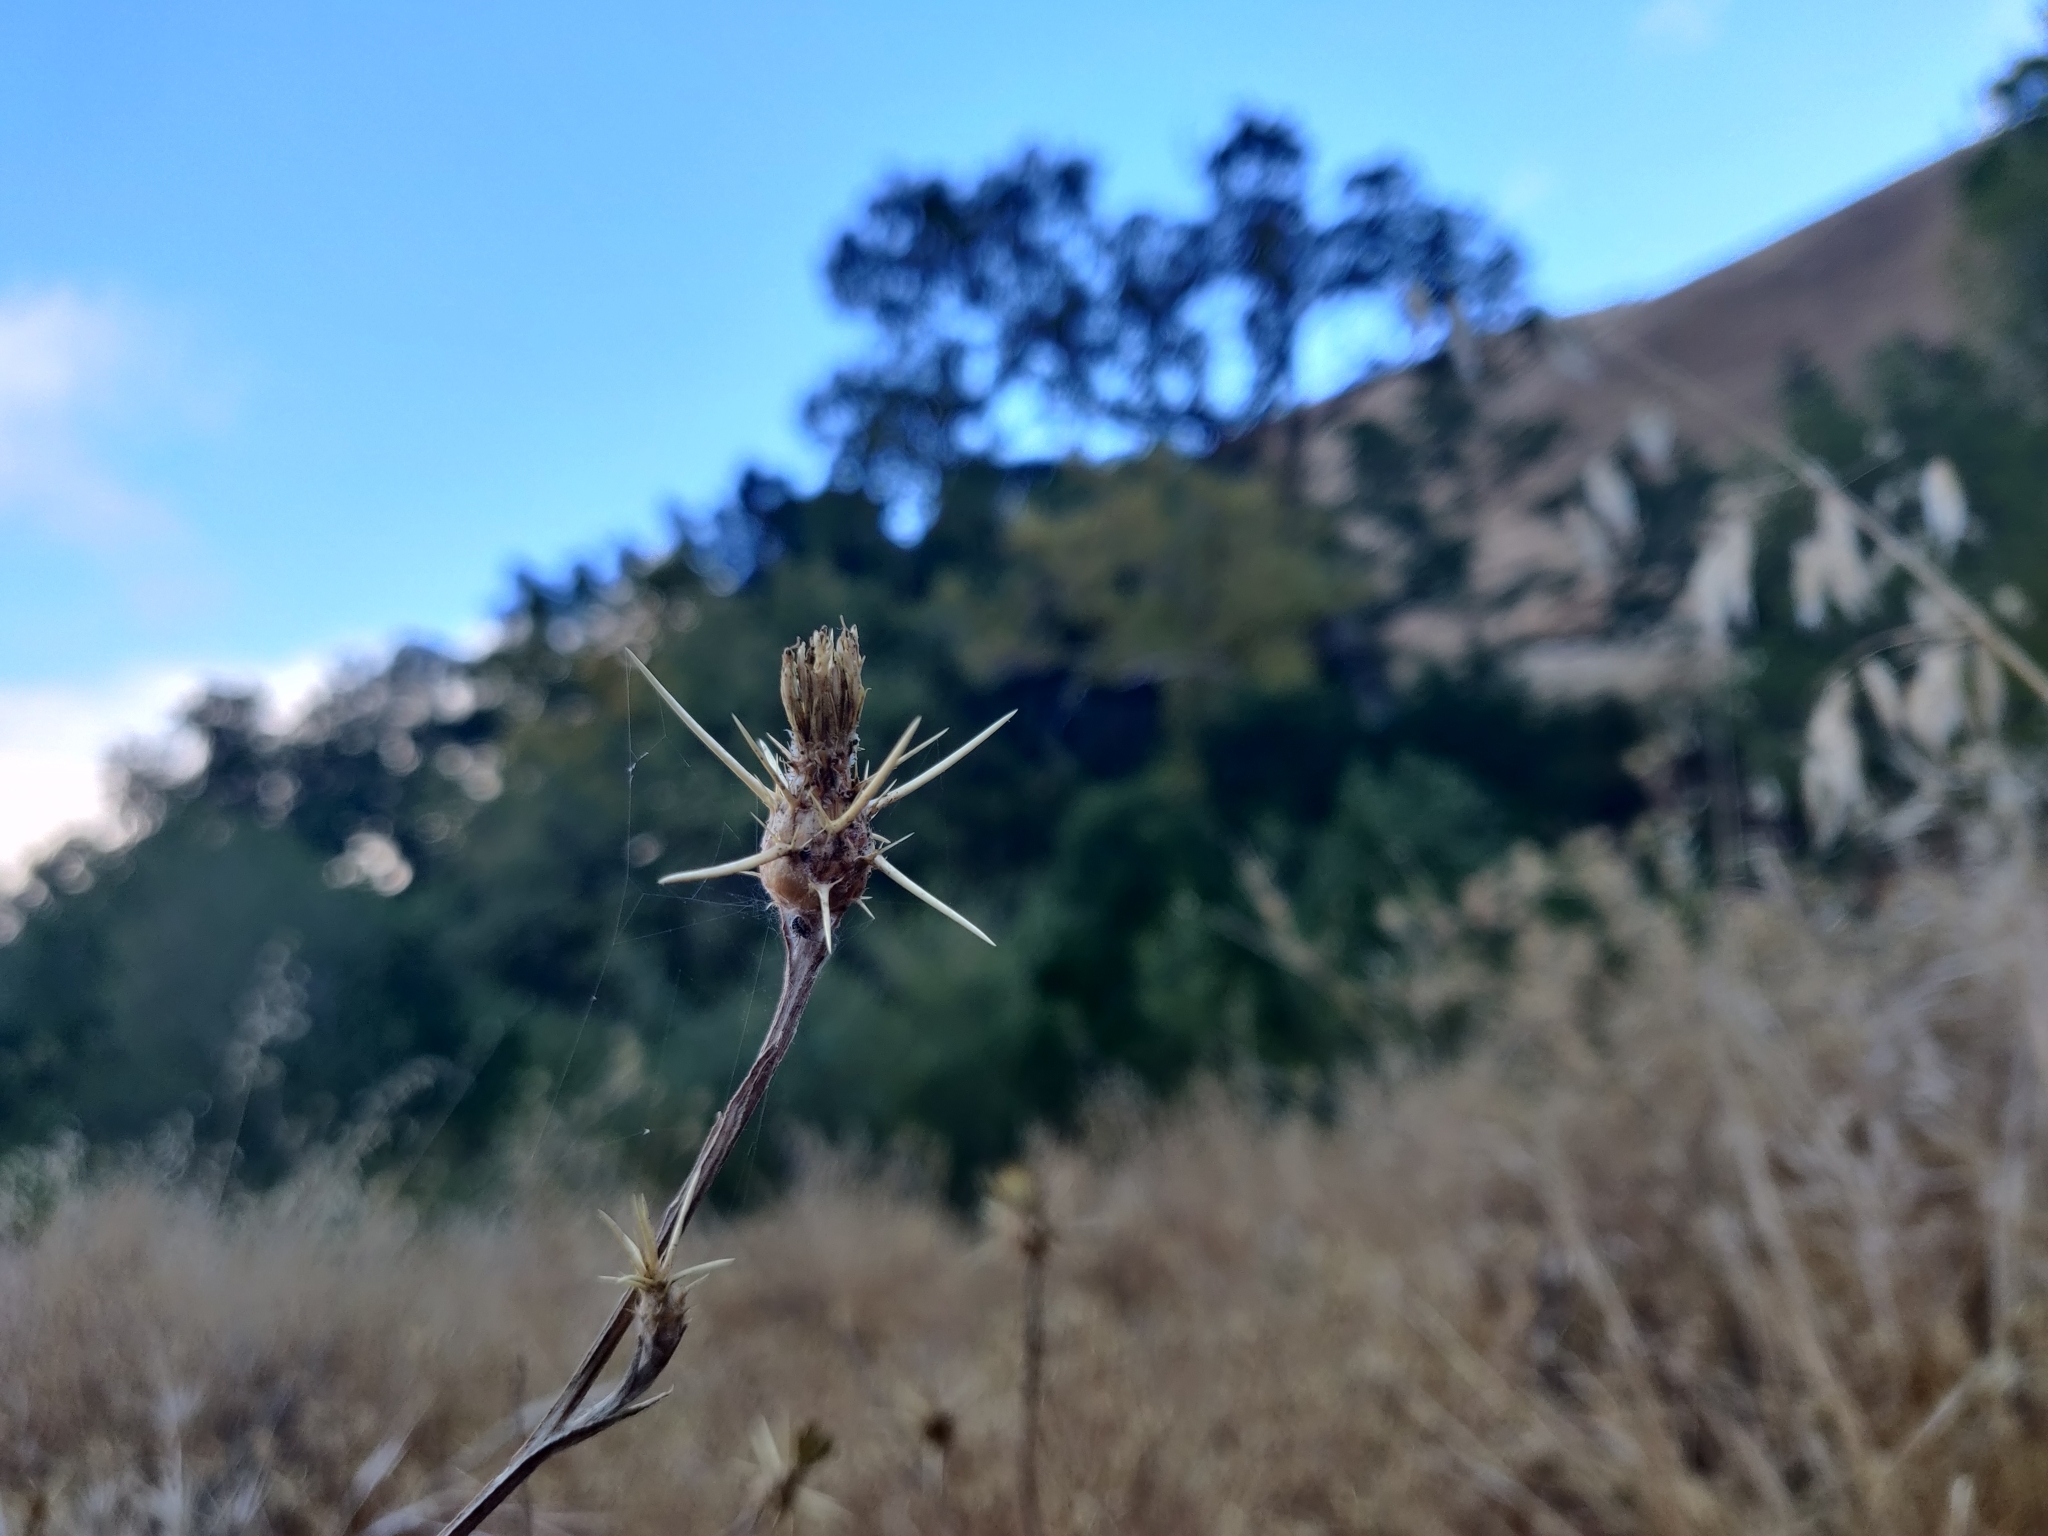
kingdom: Plantae
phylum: Tracheophyta
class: Magnoliopsida
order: Asterales
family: Asteraceae
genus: Centaurea
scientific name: Centaurea solstitialis
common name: Yellow star-thistle
